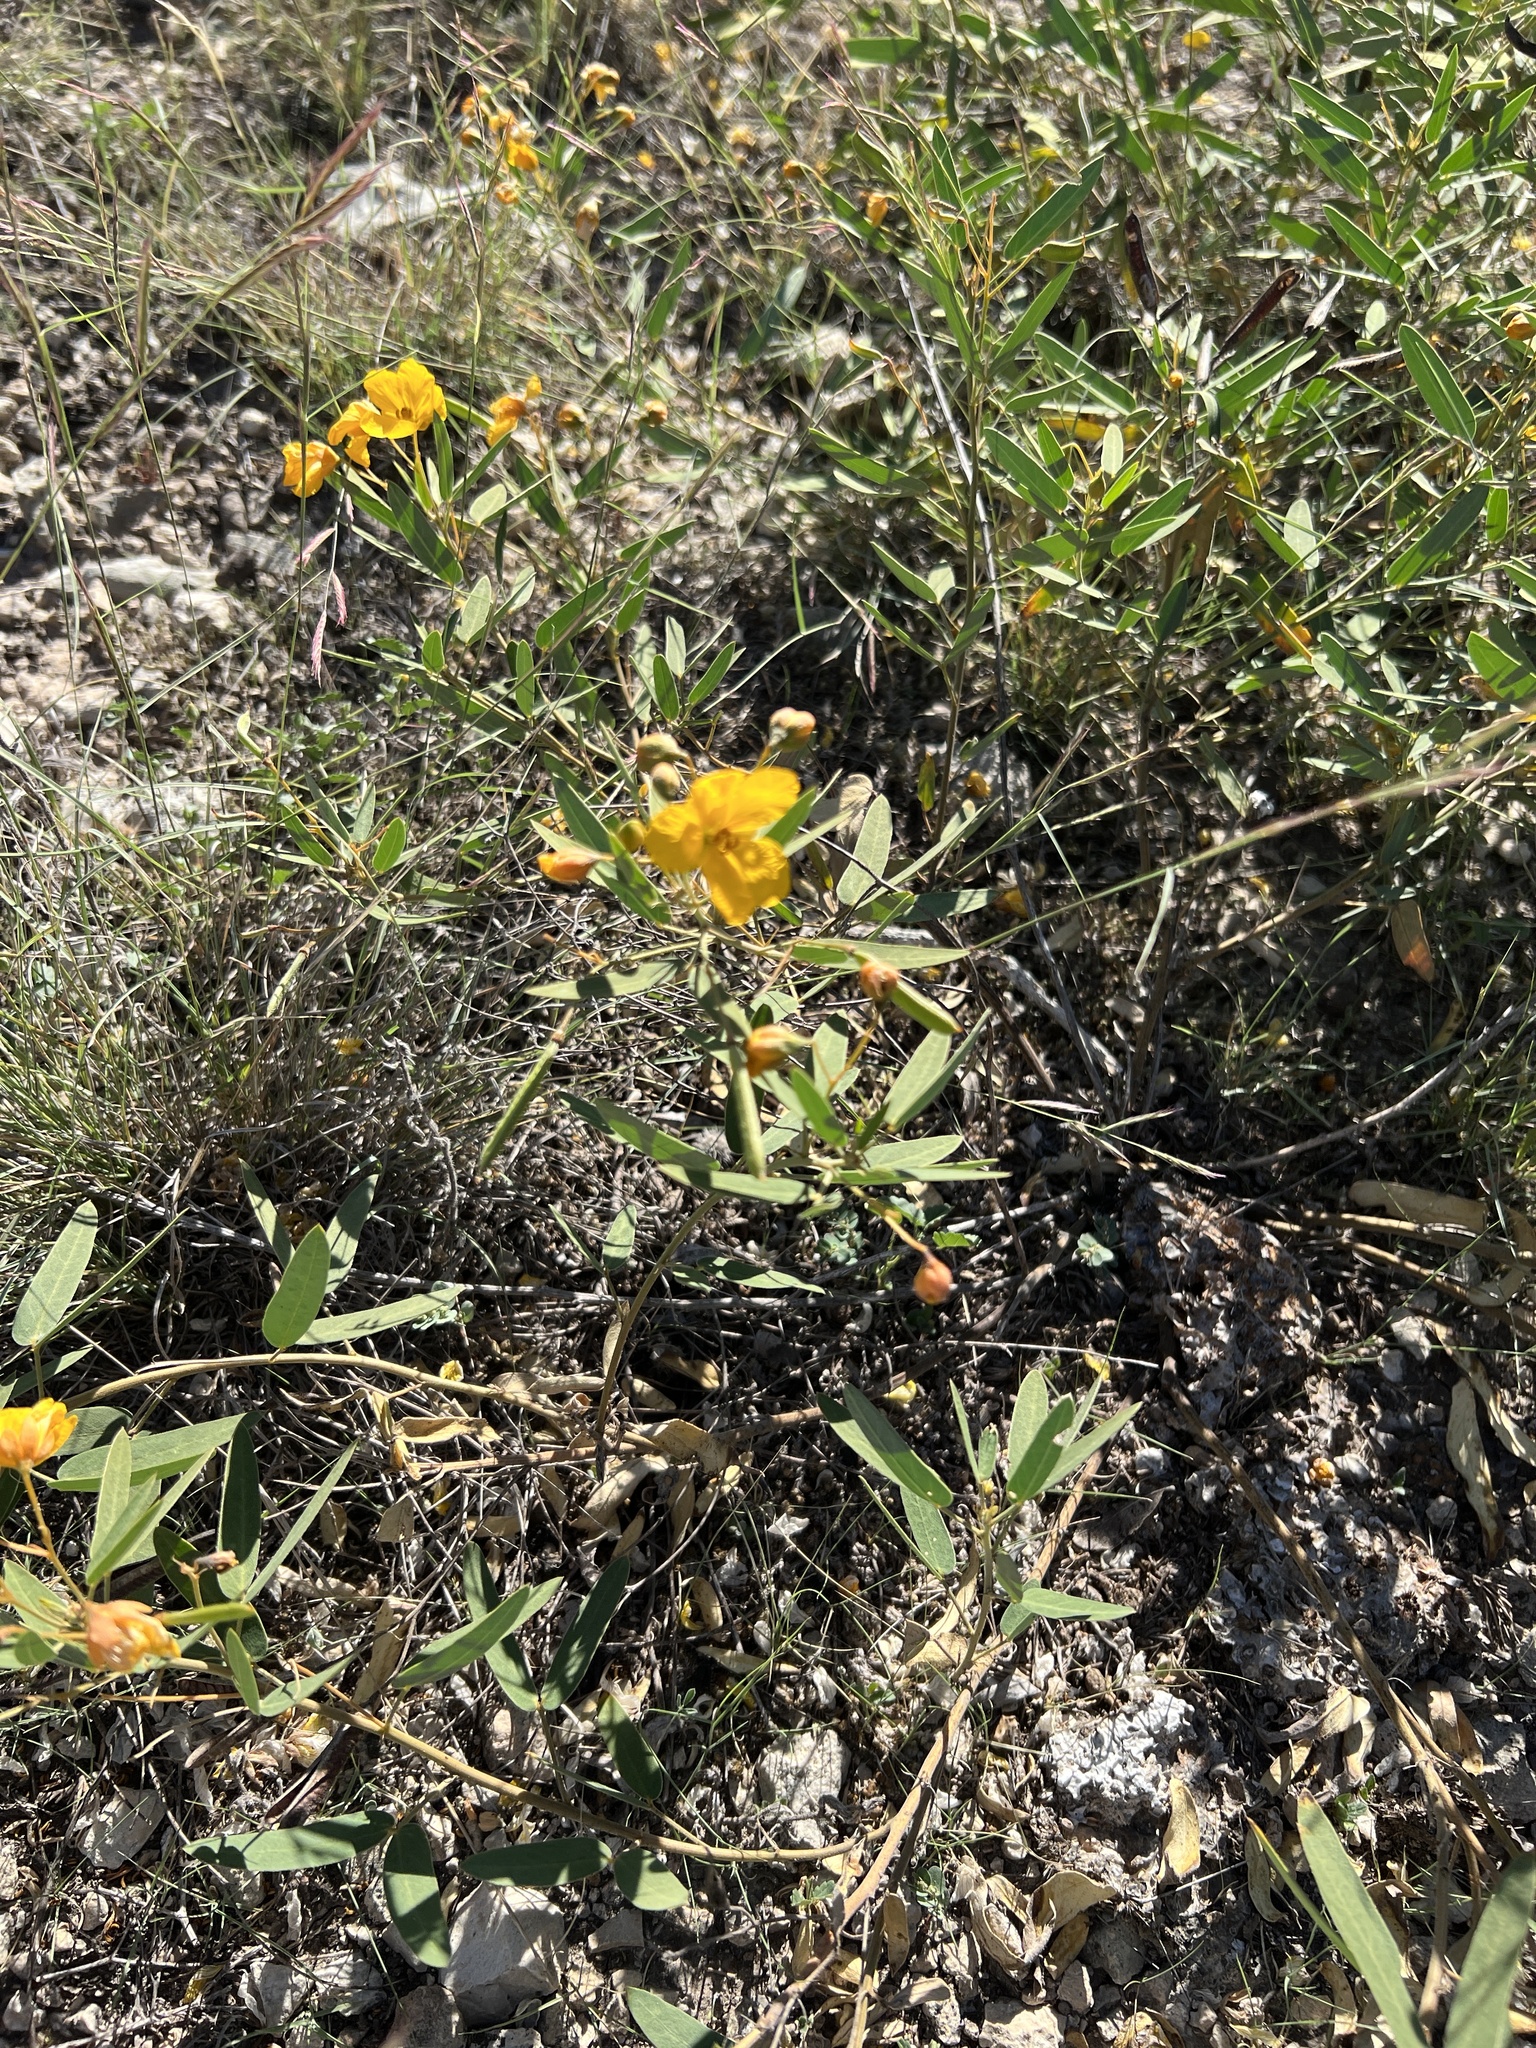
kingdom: Plantae
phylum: Tracheophyta
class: Magnoliopsida
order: Fabales
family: Fabaceae
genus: Senna
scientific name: Senna roemeriana
